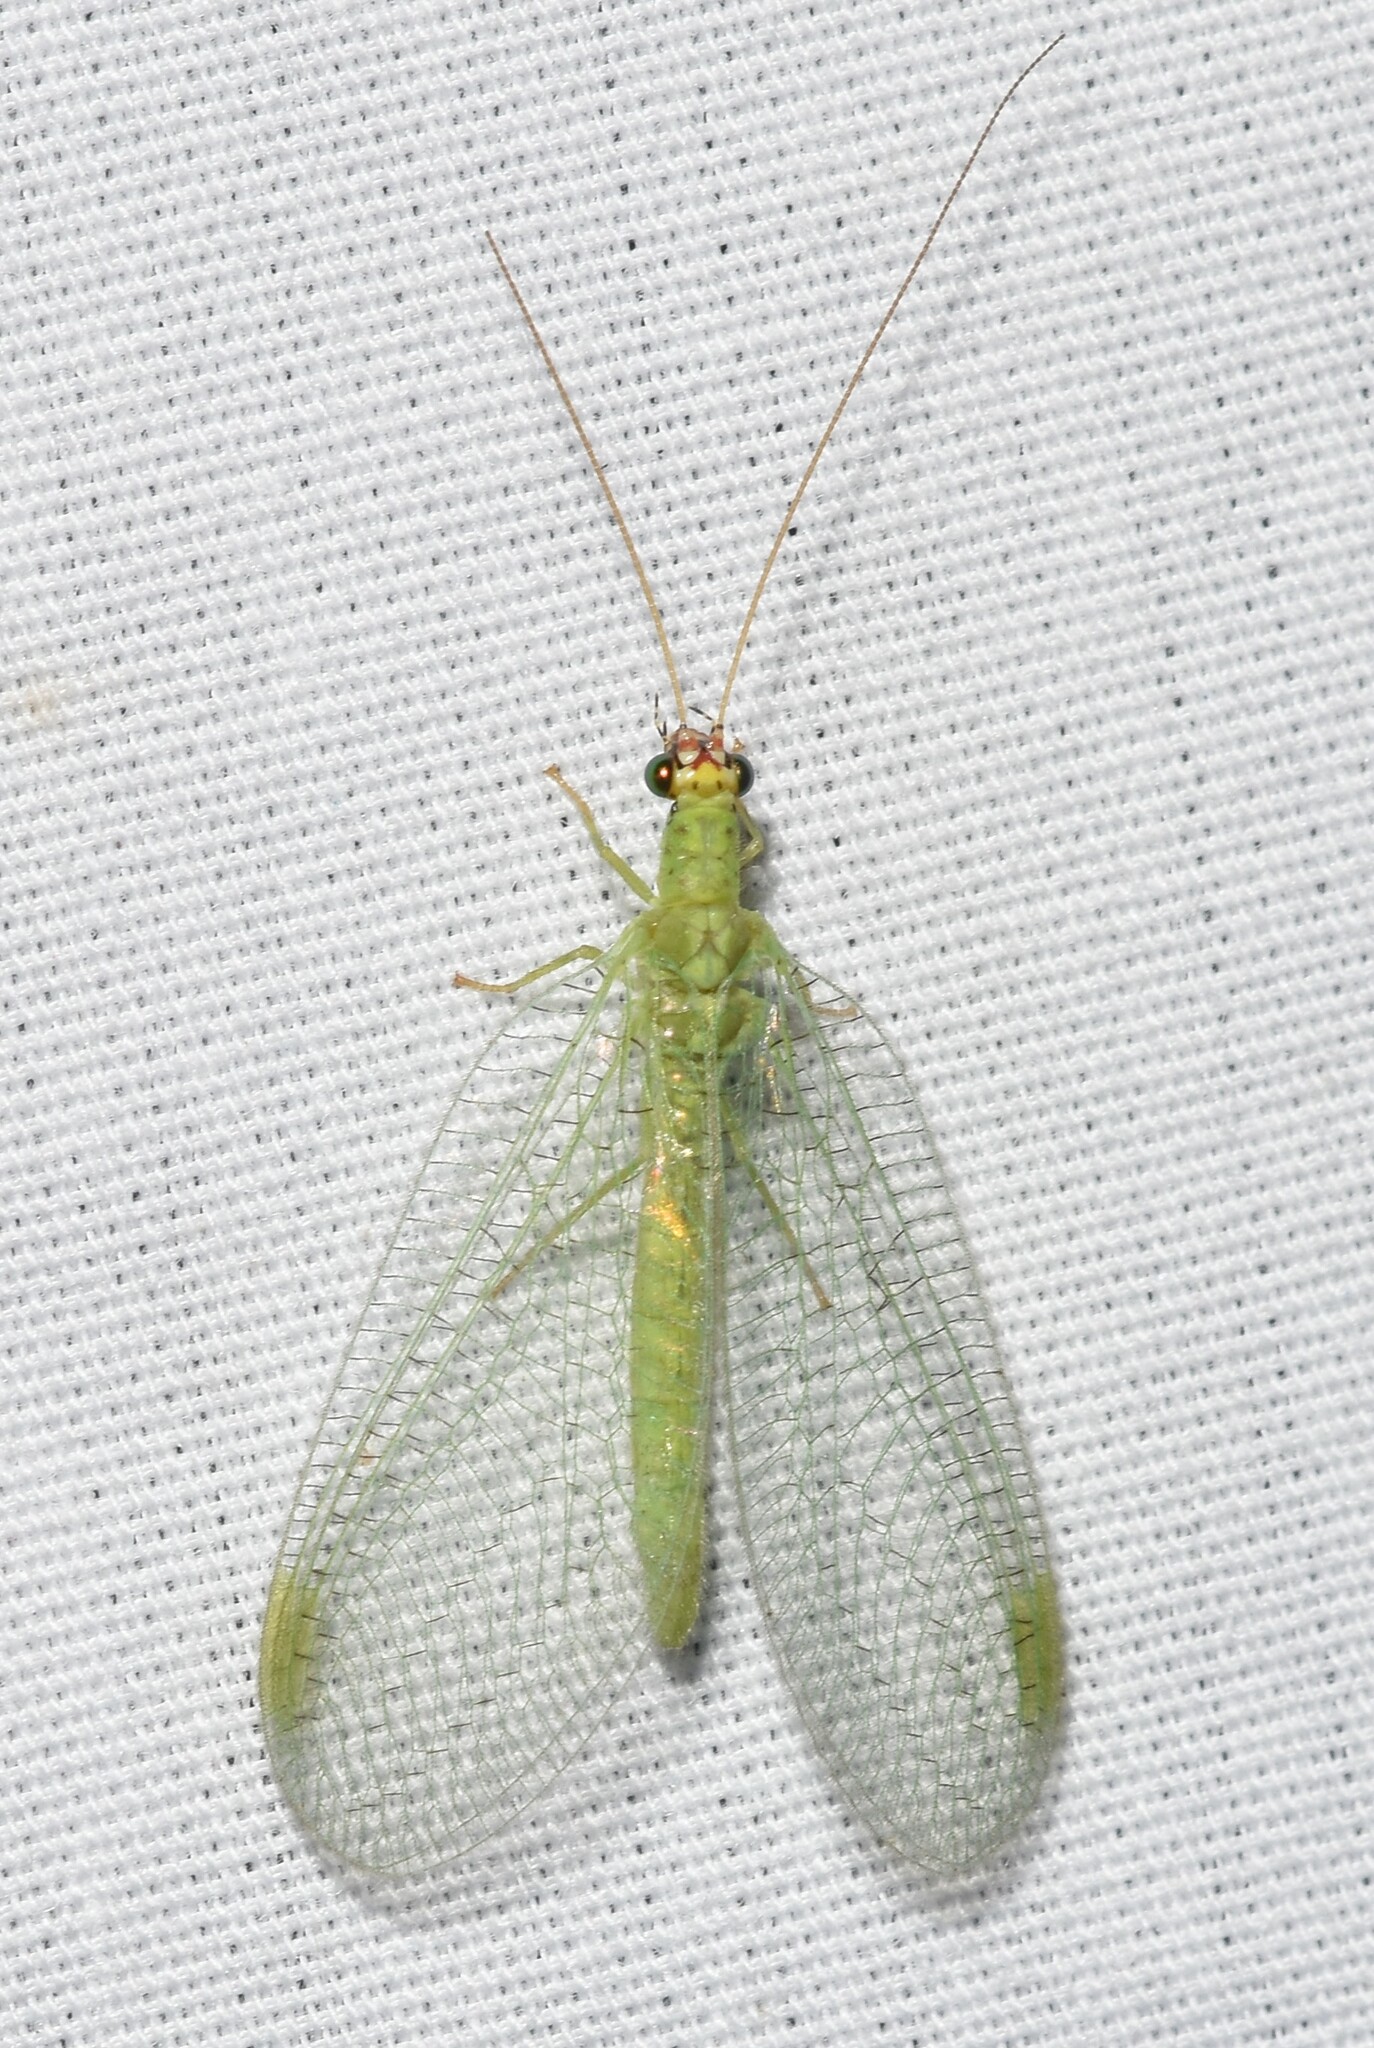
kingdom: Animalia
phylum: Arthropoda
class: Insecta
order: Neuroptera
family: Chrysopidae
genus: Chrysopa
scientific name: Chrysopa oculata
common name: Golden-eyed lacewing
